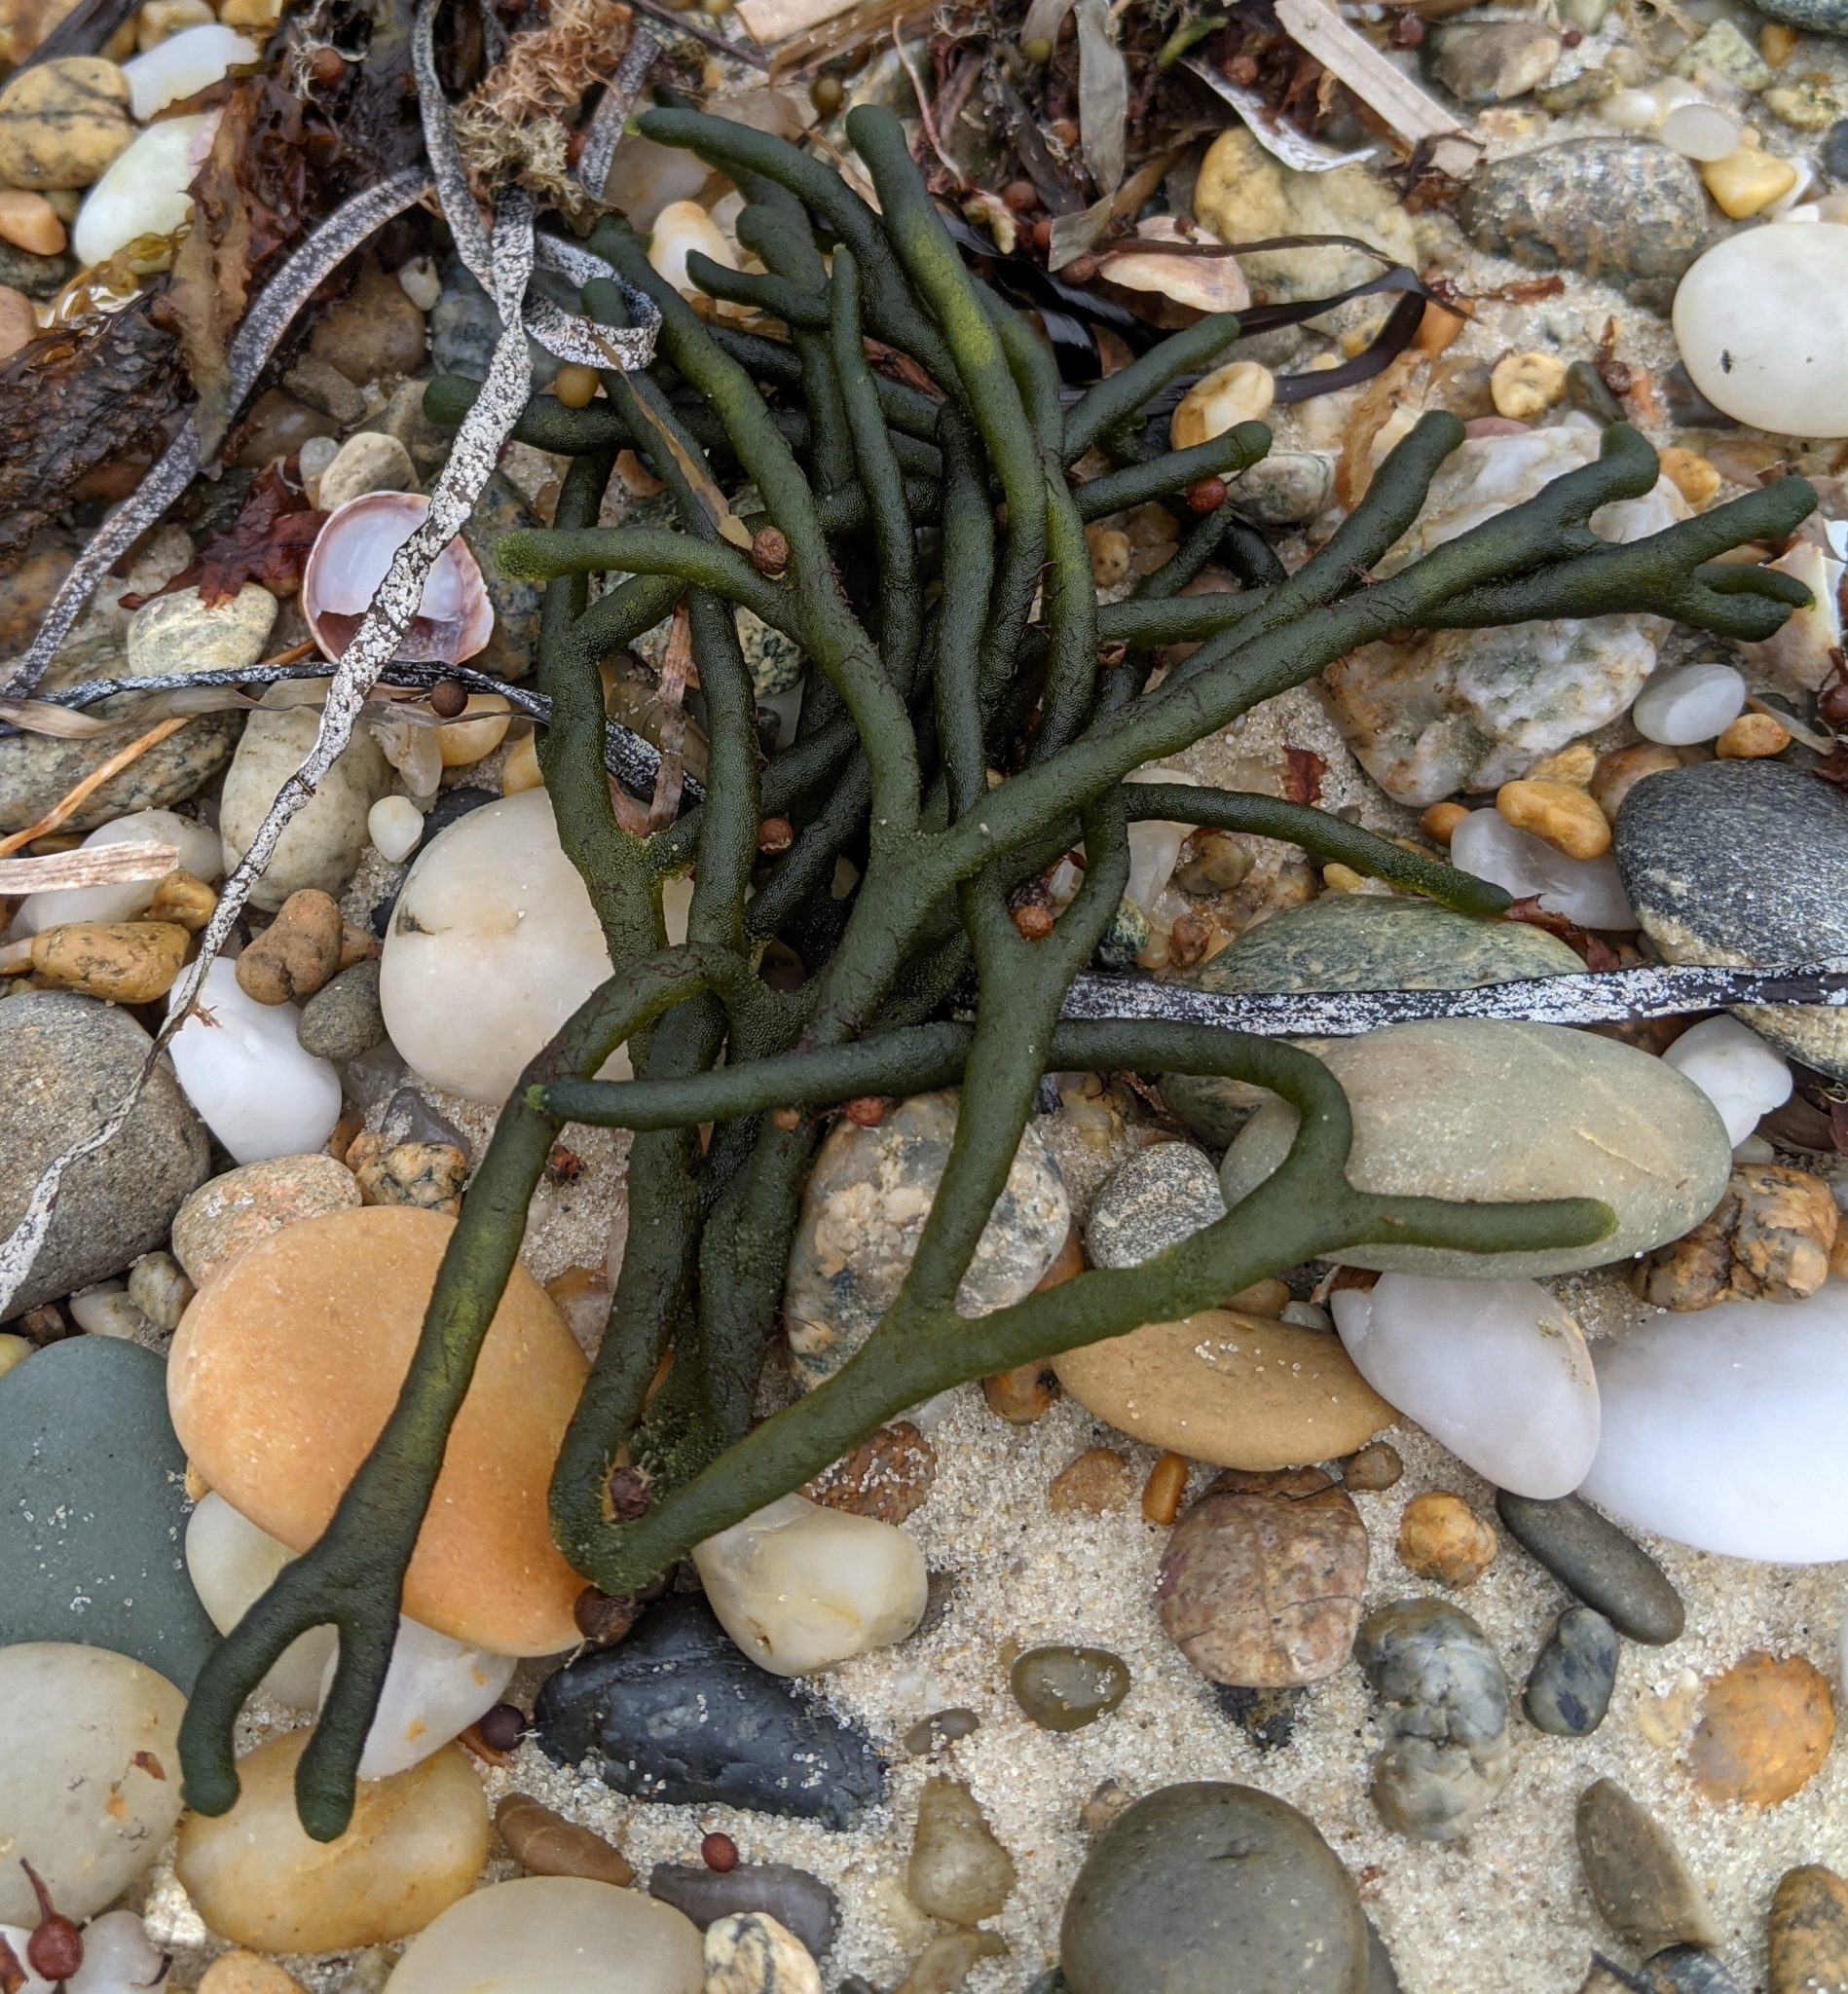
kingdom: Plantae
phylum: Chlorophyta
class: Ulvophyceae
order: Bryopsidales
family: Codiaceae
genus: Codium
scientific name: Codium fragile
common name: Dead man's fingers
